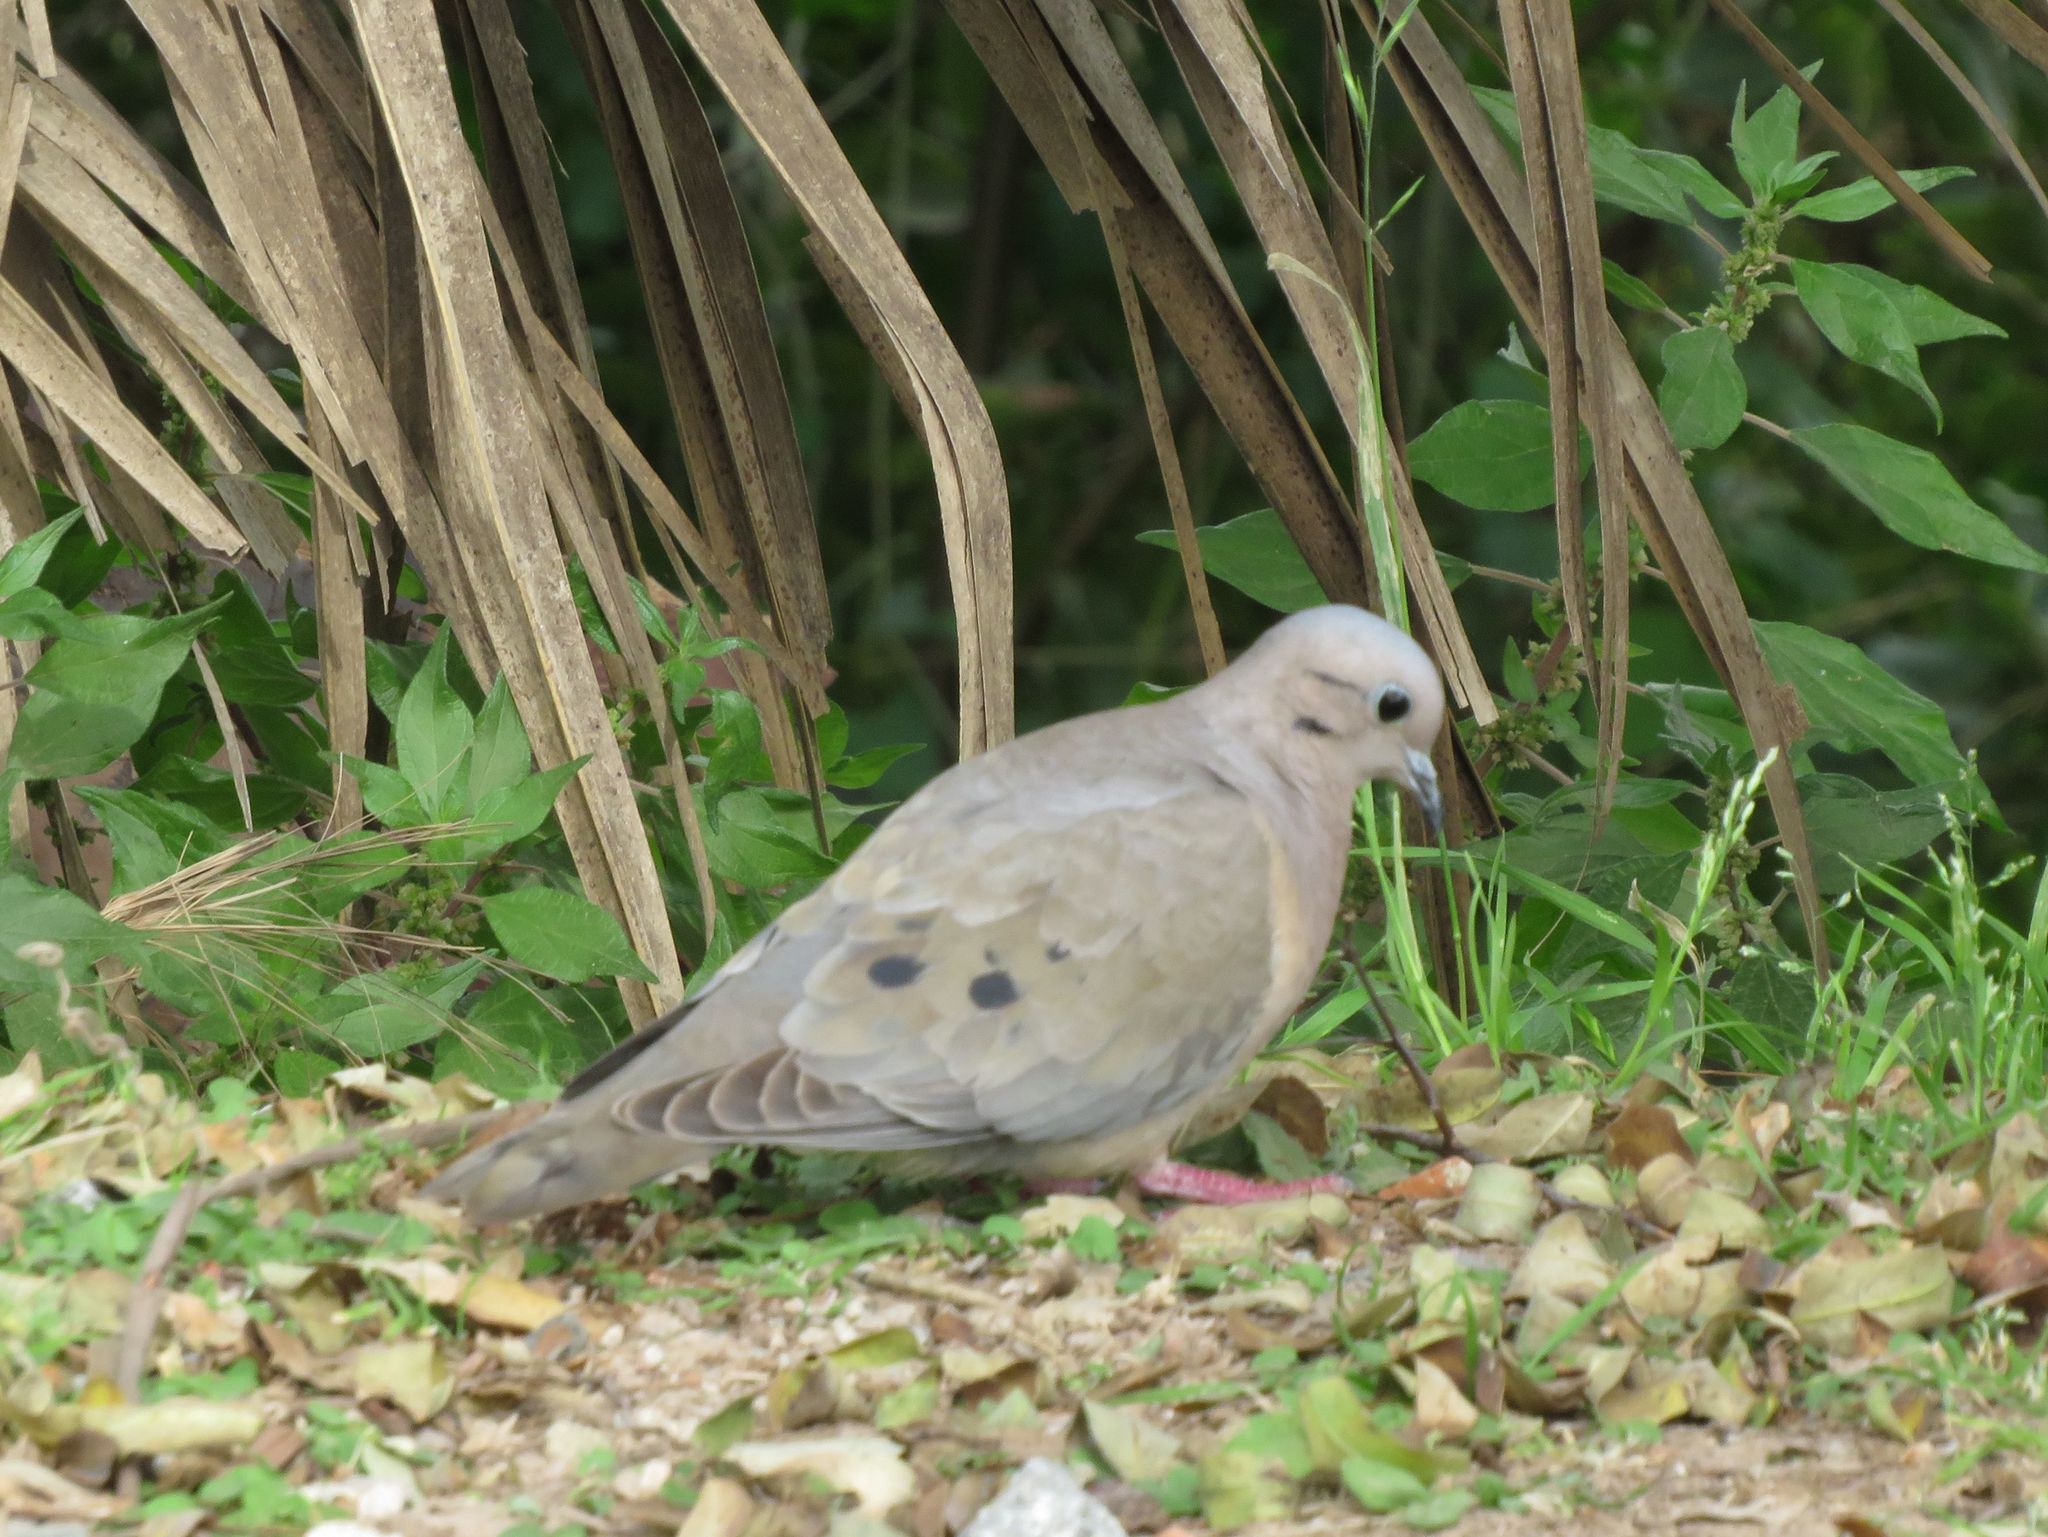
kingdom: Animalia
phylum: Chordata
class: Aves
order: Columbiformes
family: Columbidae
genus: Zenaida
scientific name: Zenaida auriculata
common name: Eared dove
